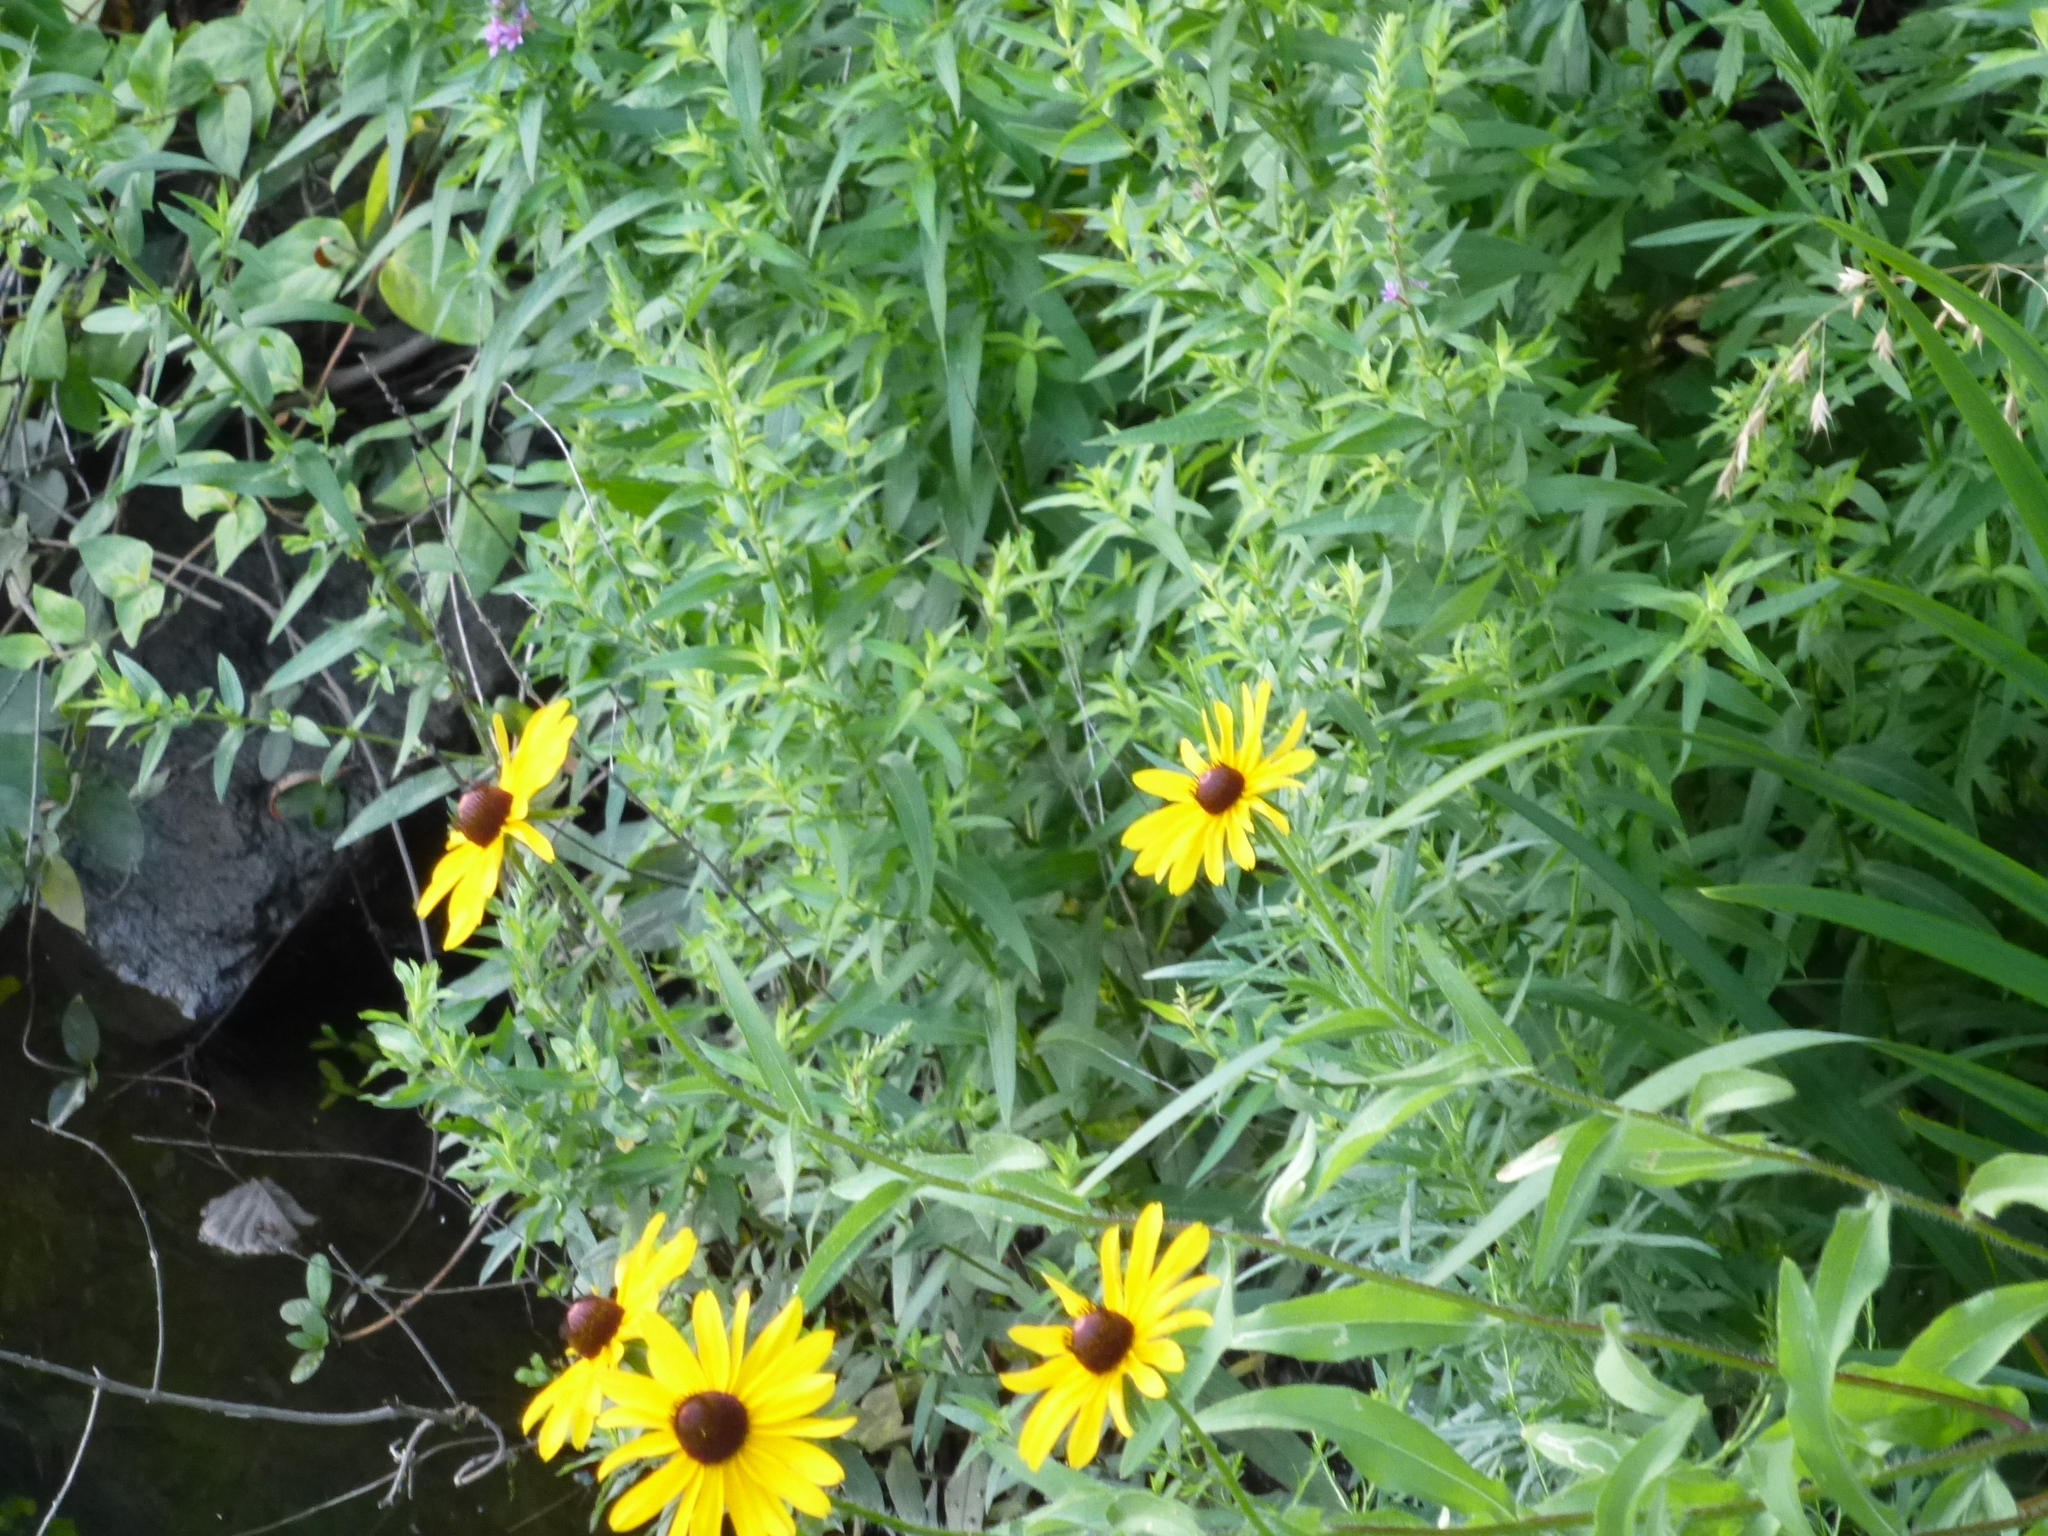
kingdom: Plantae
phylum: Tracheophyta
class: Magnoliopsida
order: Asterales
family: Asteraceae
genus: Rudbeckia
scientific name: Rudbeckia hirta
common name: Black-eyed-susan
